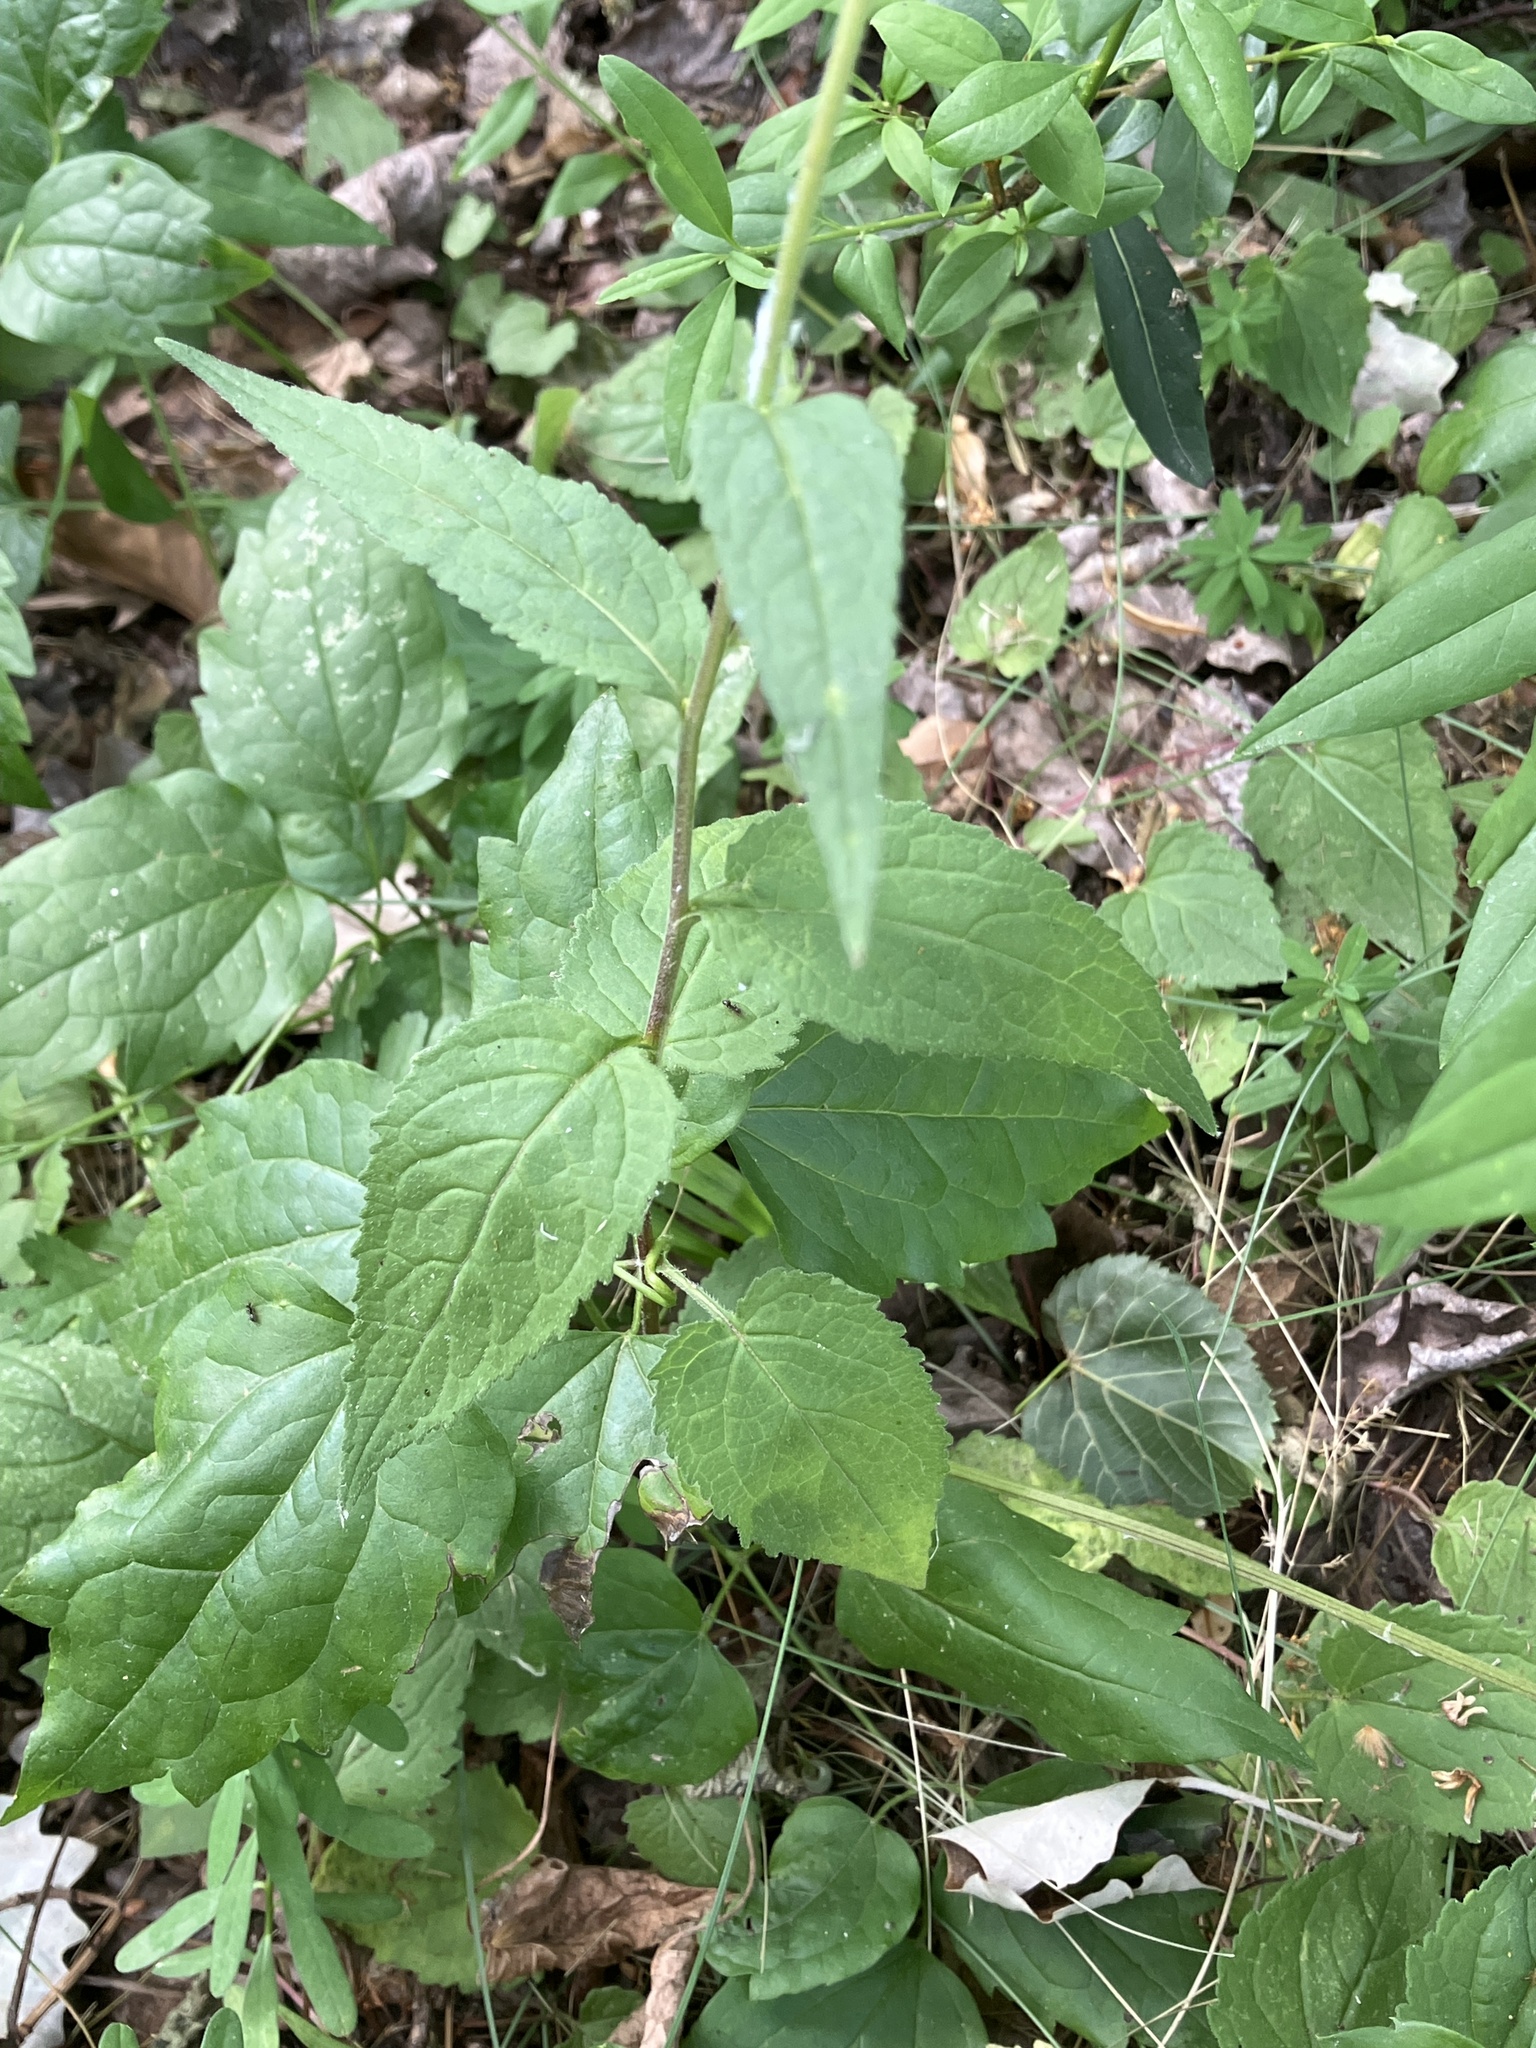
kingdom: Plantae
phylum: Tracheophyta
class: Magnoliopsida
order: Asterales
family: Campanulaceae
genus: Campanula
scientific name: Campanula trachelium
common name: Nettle-leaved bellflower
